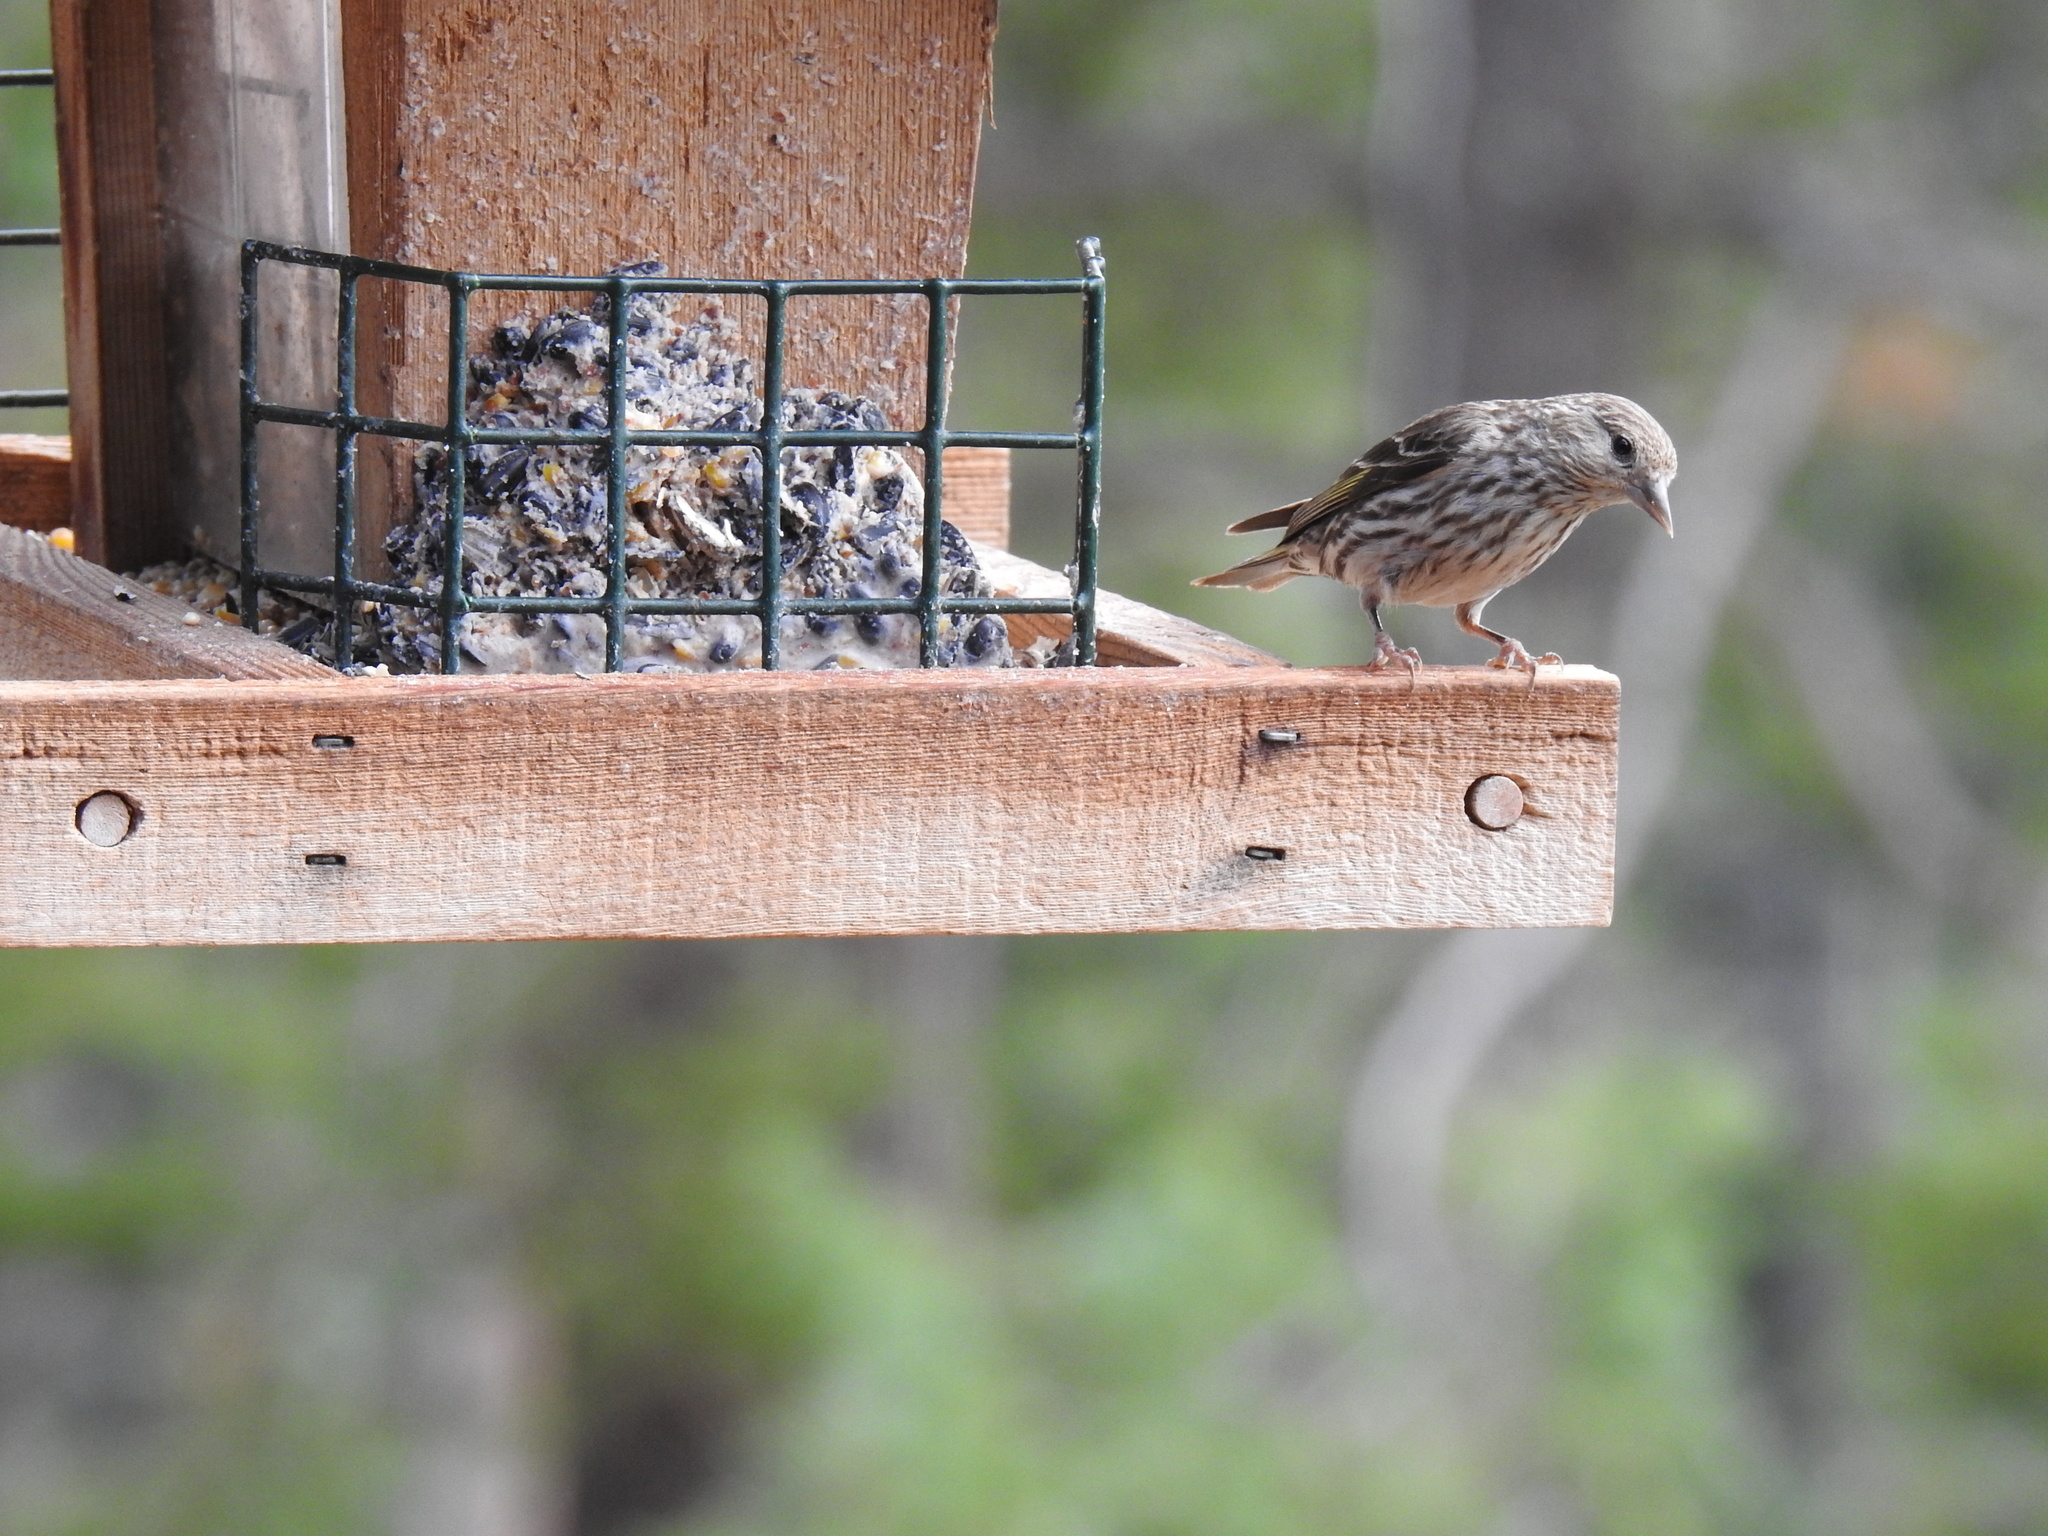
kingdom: Animalia
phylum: Chordata
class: Aves
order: Passeriformes
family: Fringillidae
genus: Spinus
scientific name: Spinus pinus
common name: Pine siskin
